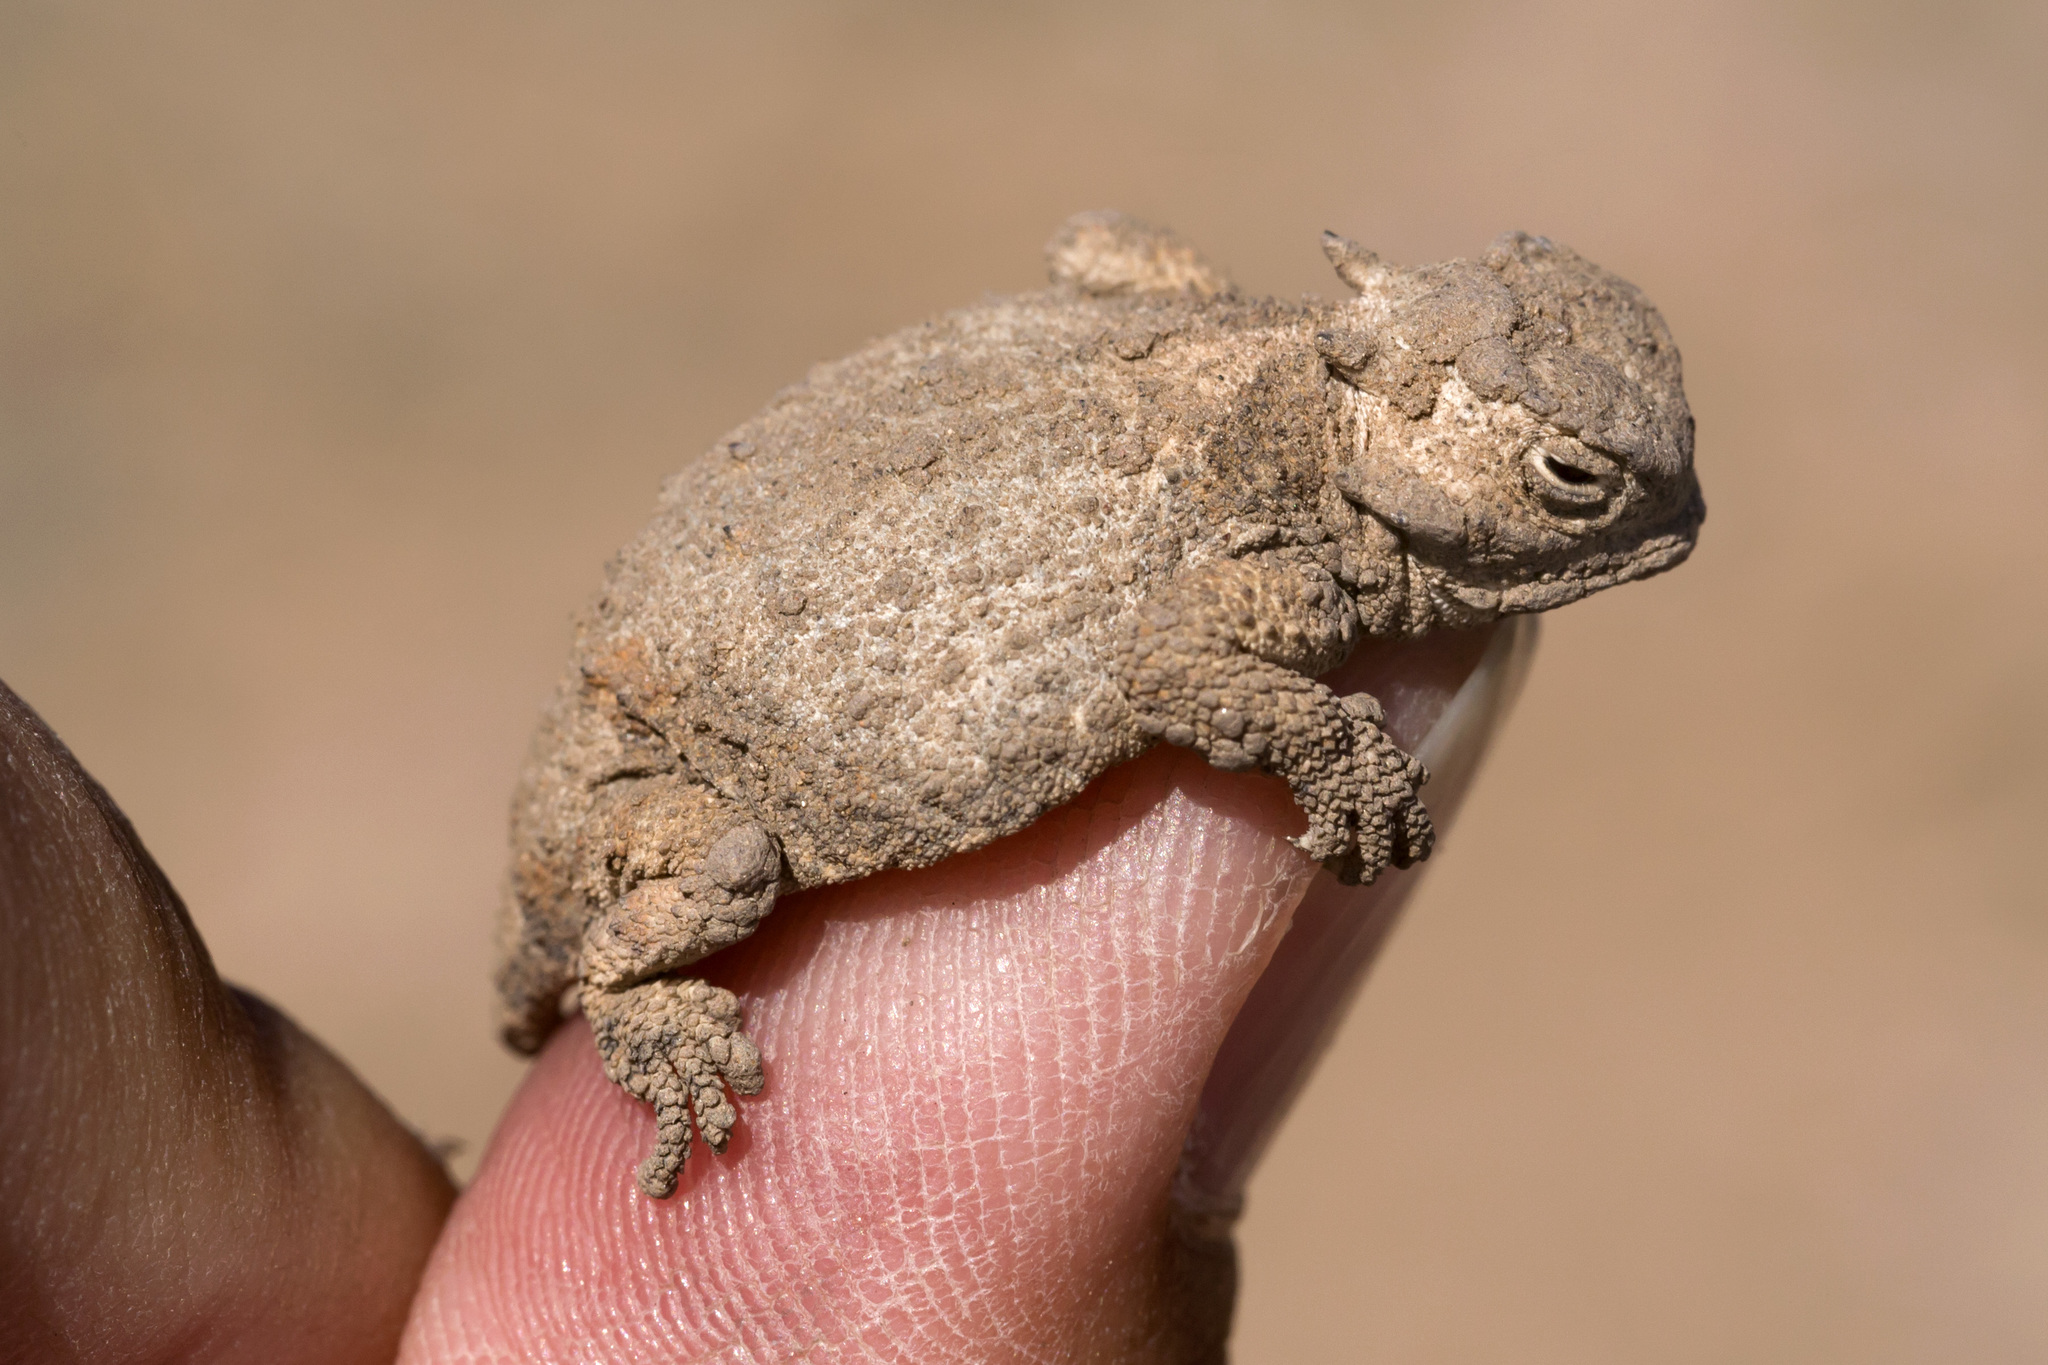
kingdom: Animalia
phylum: Chordata
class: Squamata
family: Phrynosomatidae
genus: Phrynosoma
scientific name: Phrynosoma modestum
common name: Roundtail horned lizard
